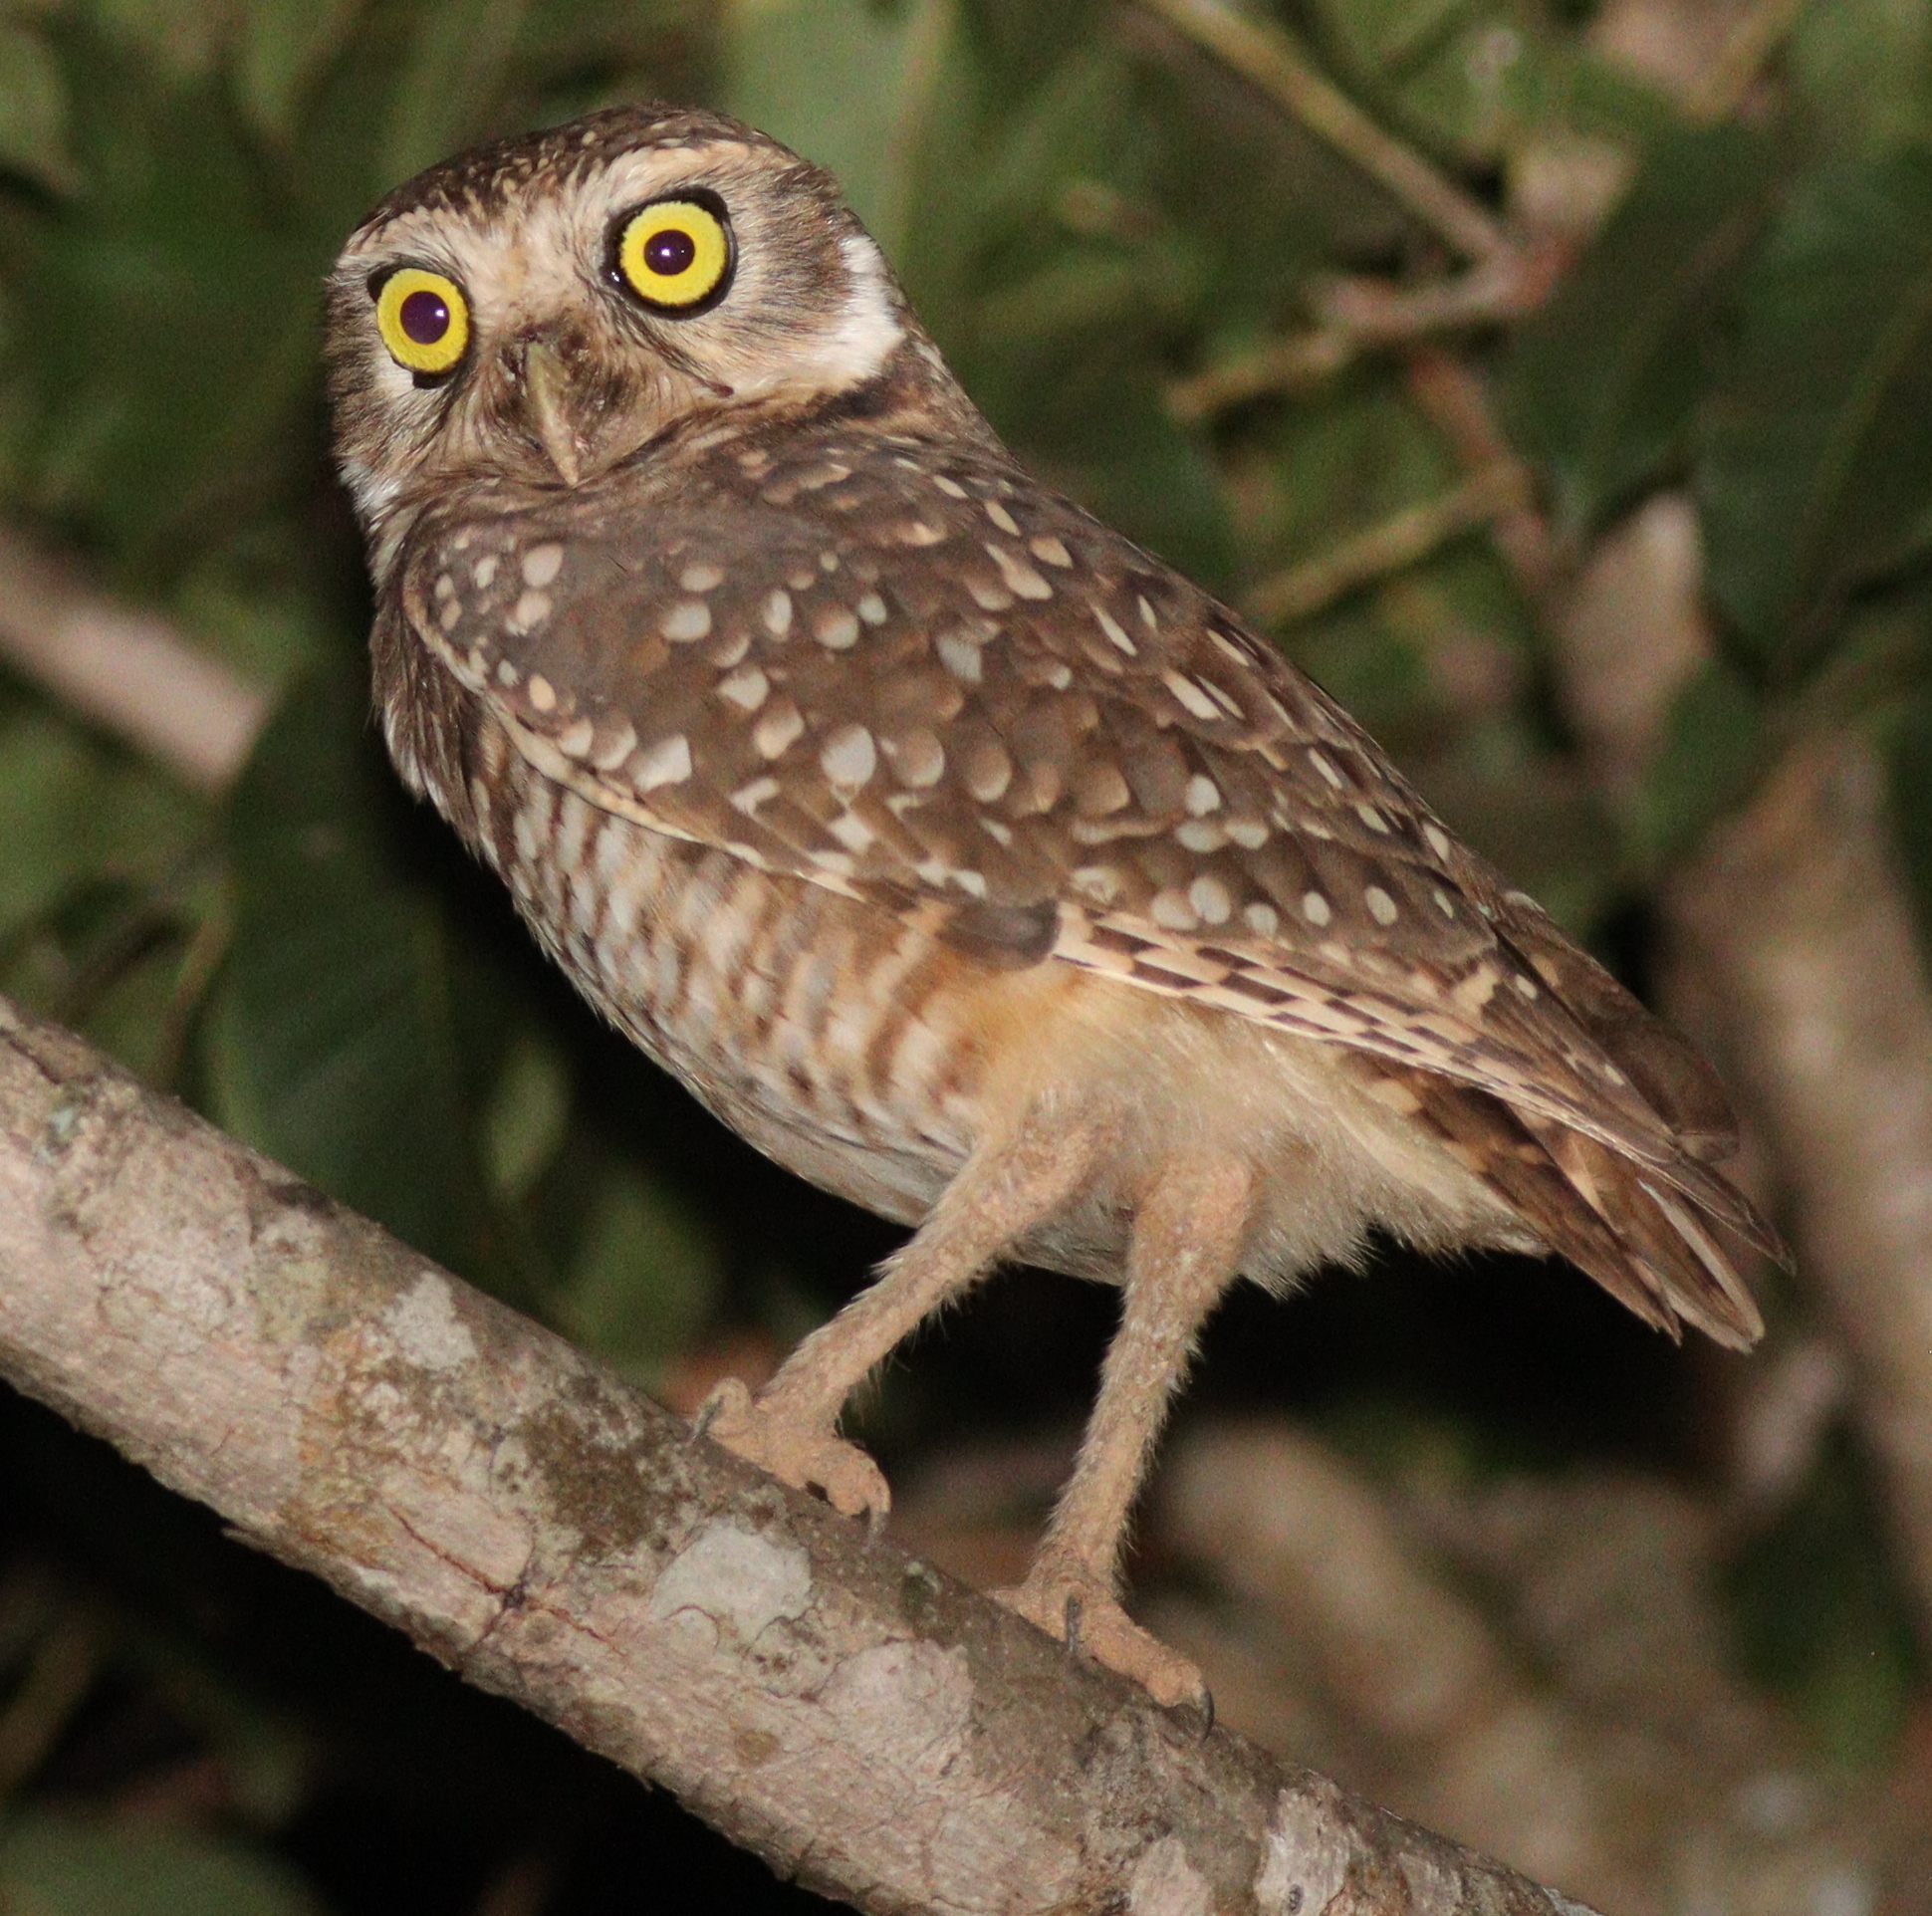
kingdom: Animalia
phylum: Chordata
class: Aves
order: Strigiformes
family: Strigidae
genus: Athene
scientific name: Athene cunicularia
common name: Burrowing owl
